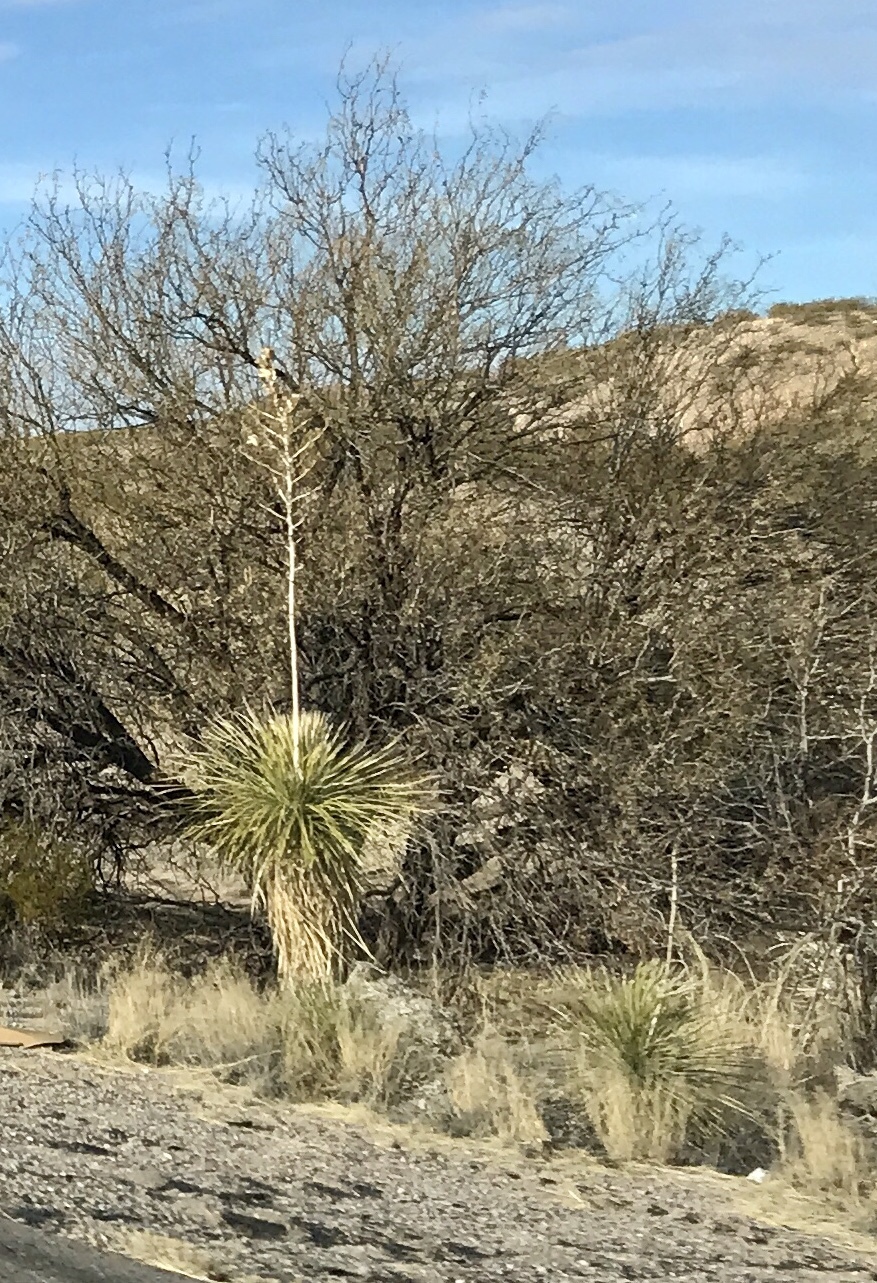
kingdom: Plantae
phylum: Tracheophyta
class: Liliopsida
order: Asparagales
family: Asparagaceae
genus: Yucca
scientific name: Yucca elata
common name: Palmella
